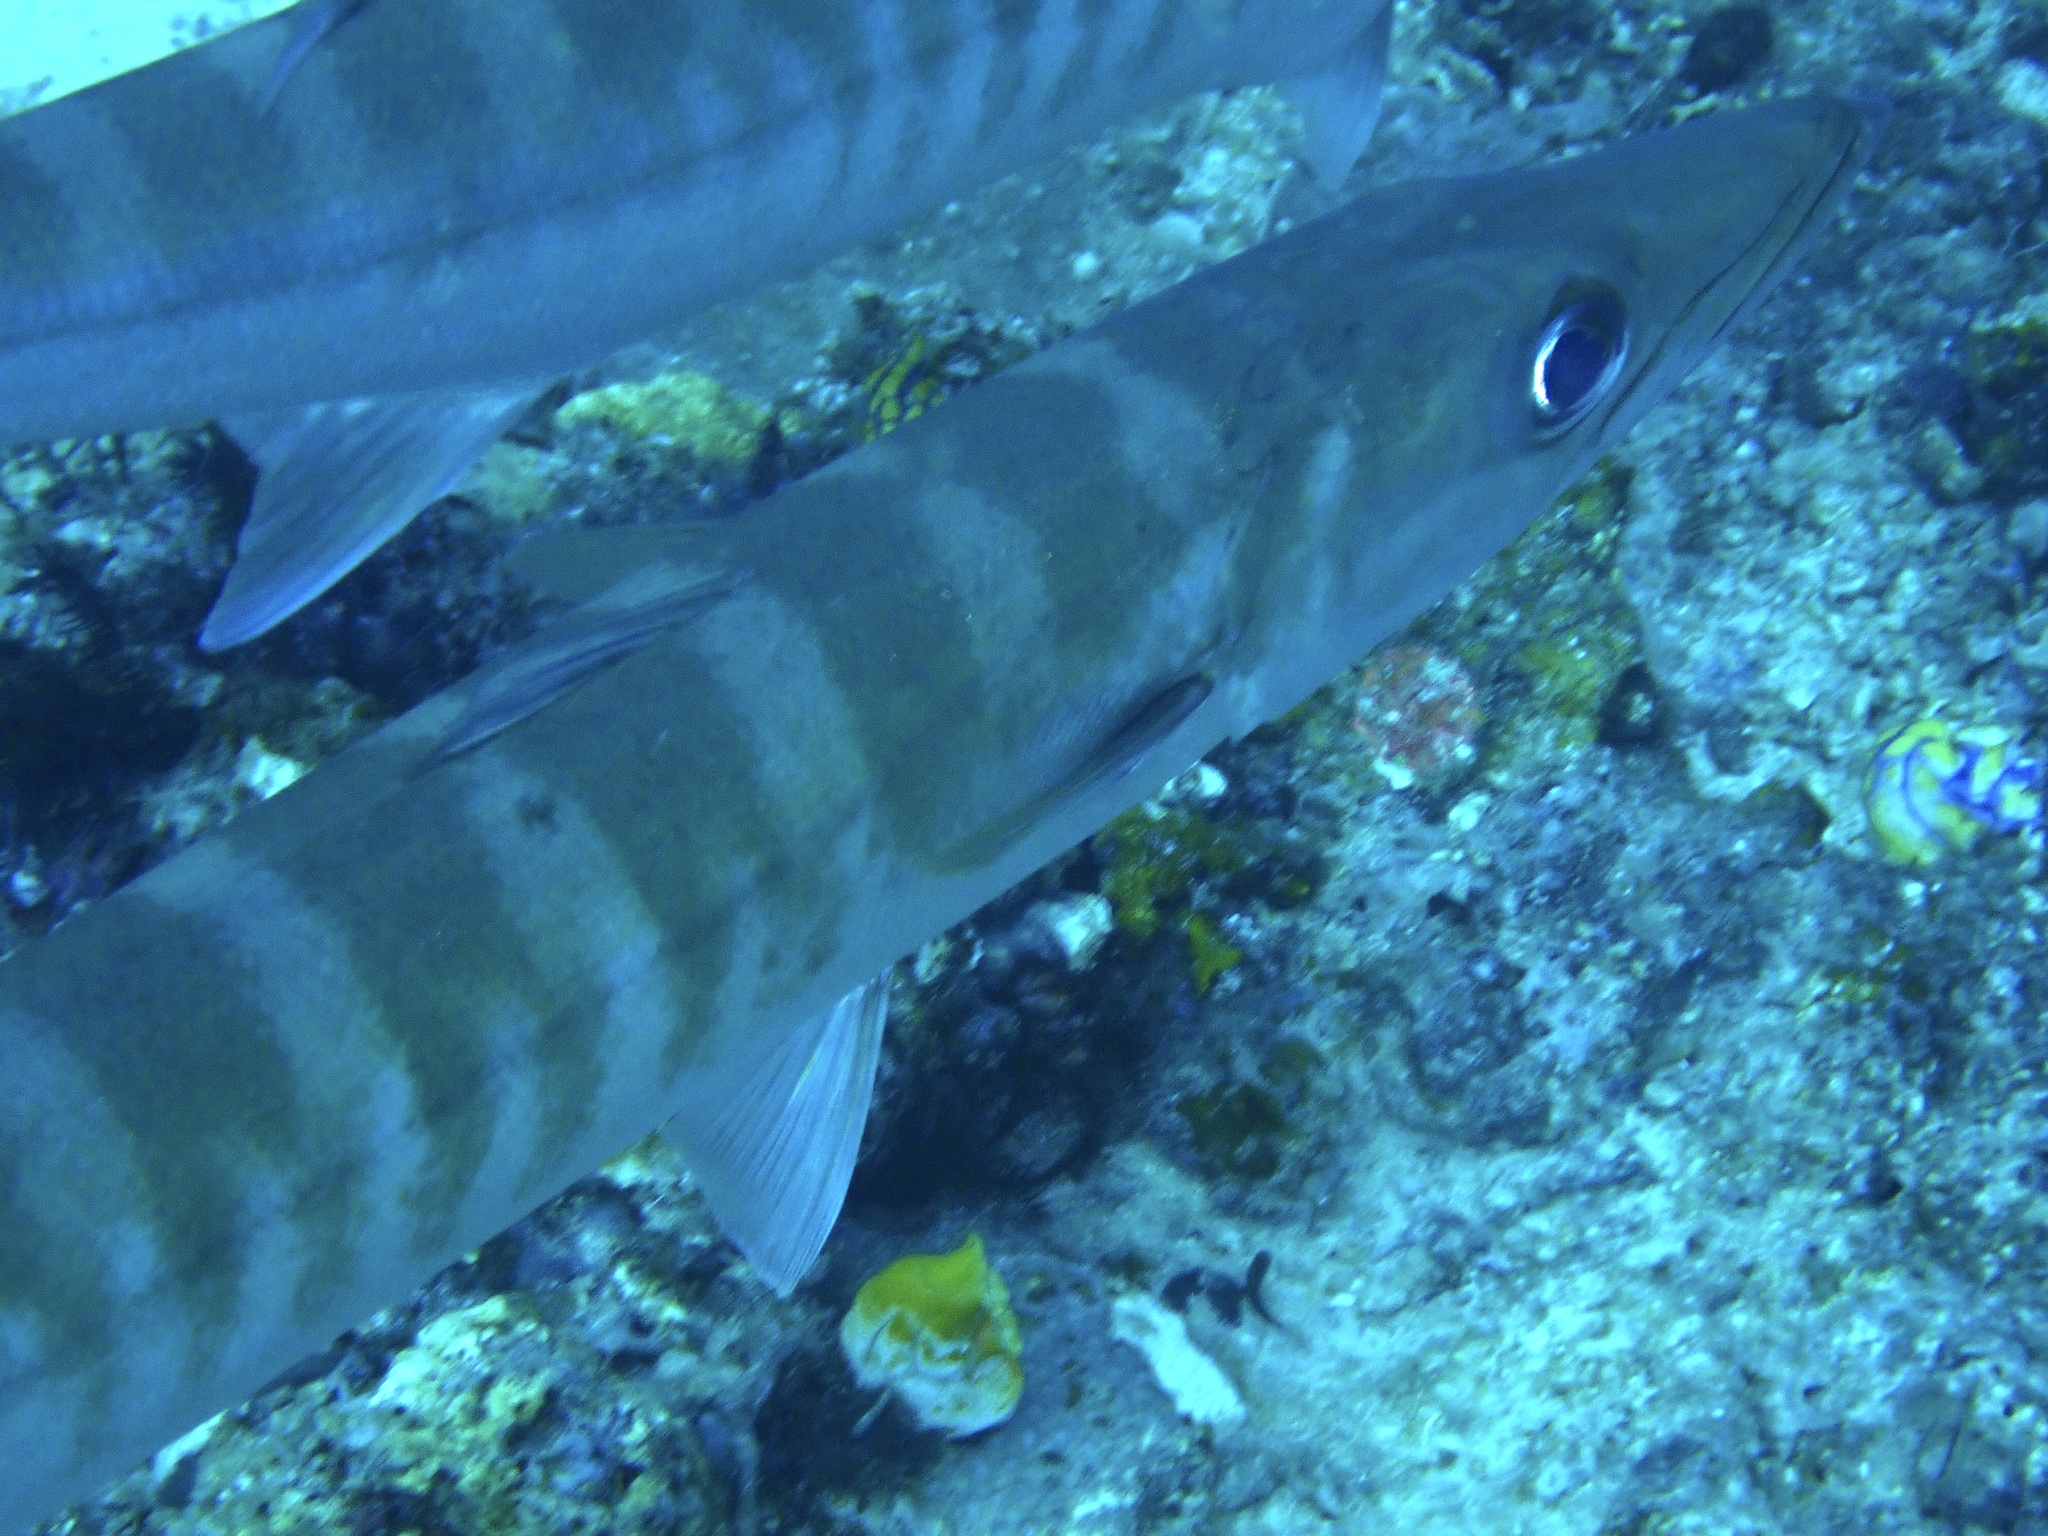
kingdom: Animalia
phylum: Chordata
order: Perciformes
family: Sphyraenidae
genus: Sphyraena
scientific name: Sphyraena jello
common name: Pickhandle barracuda
